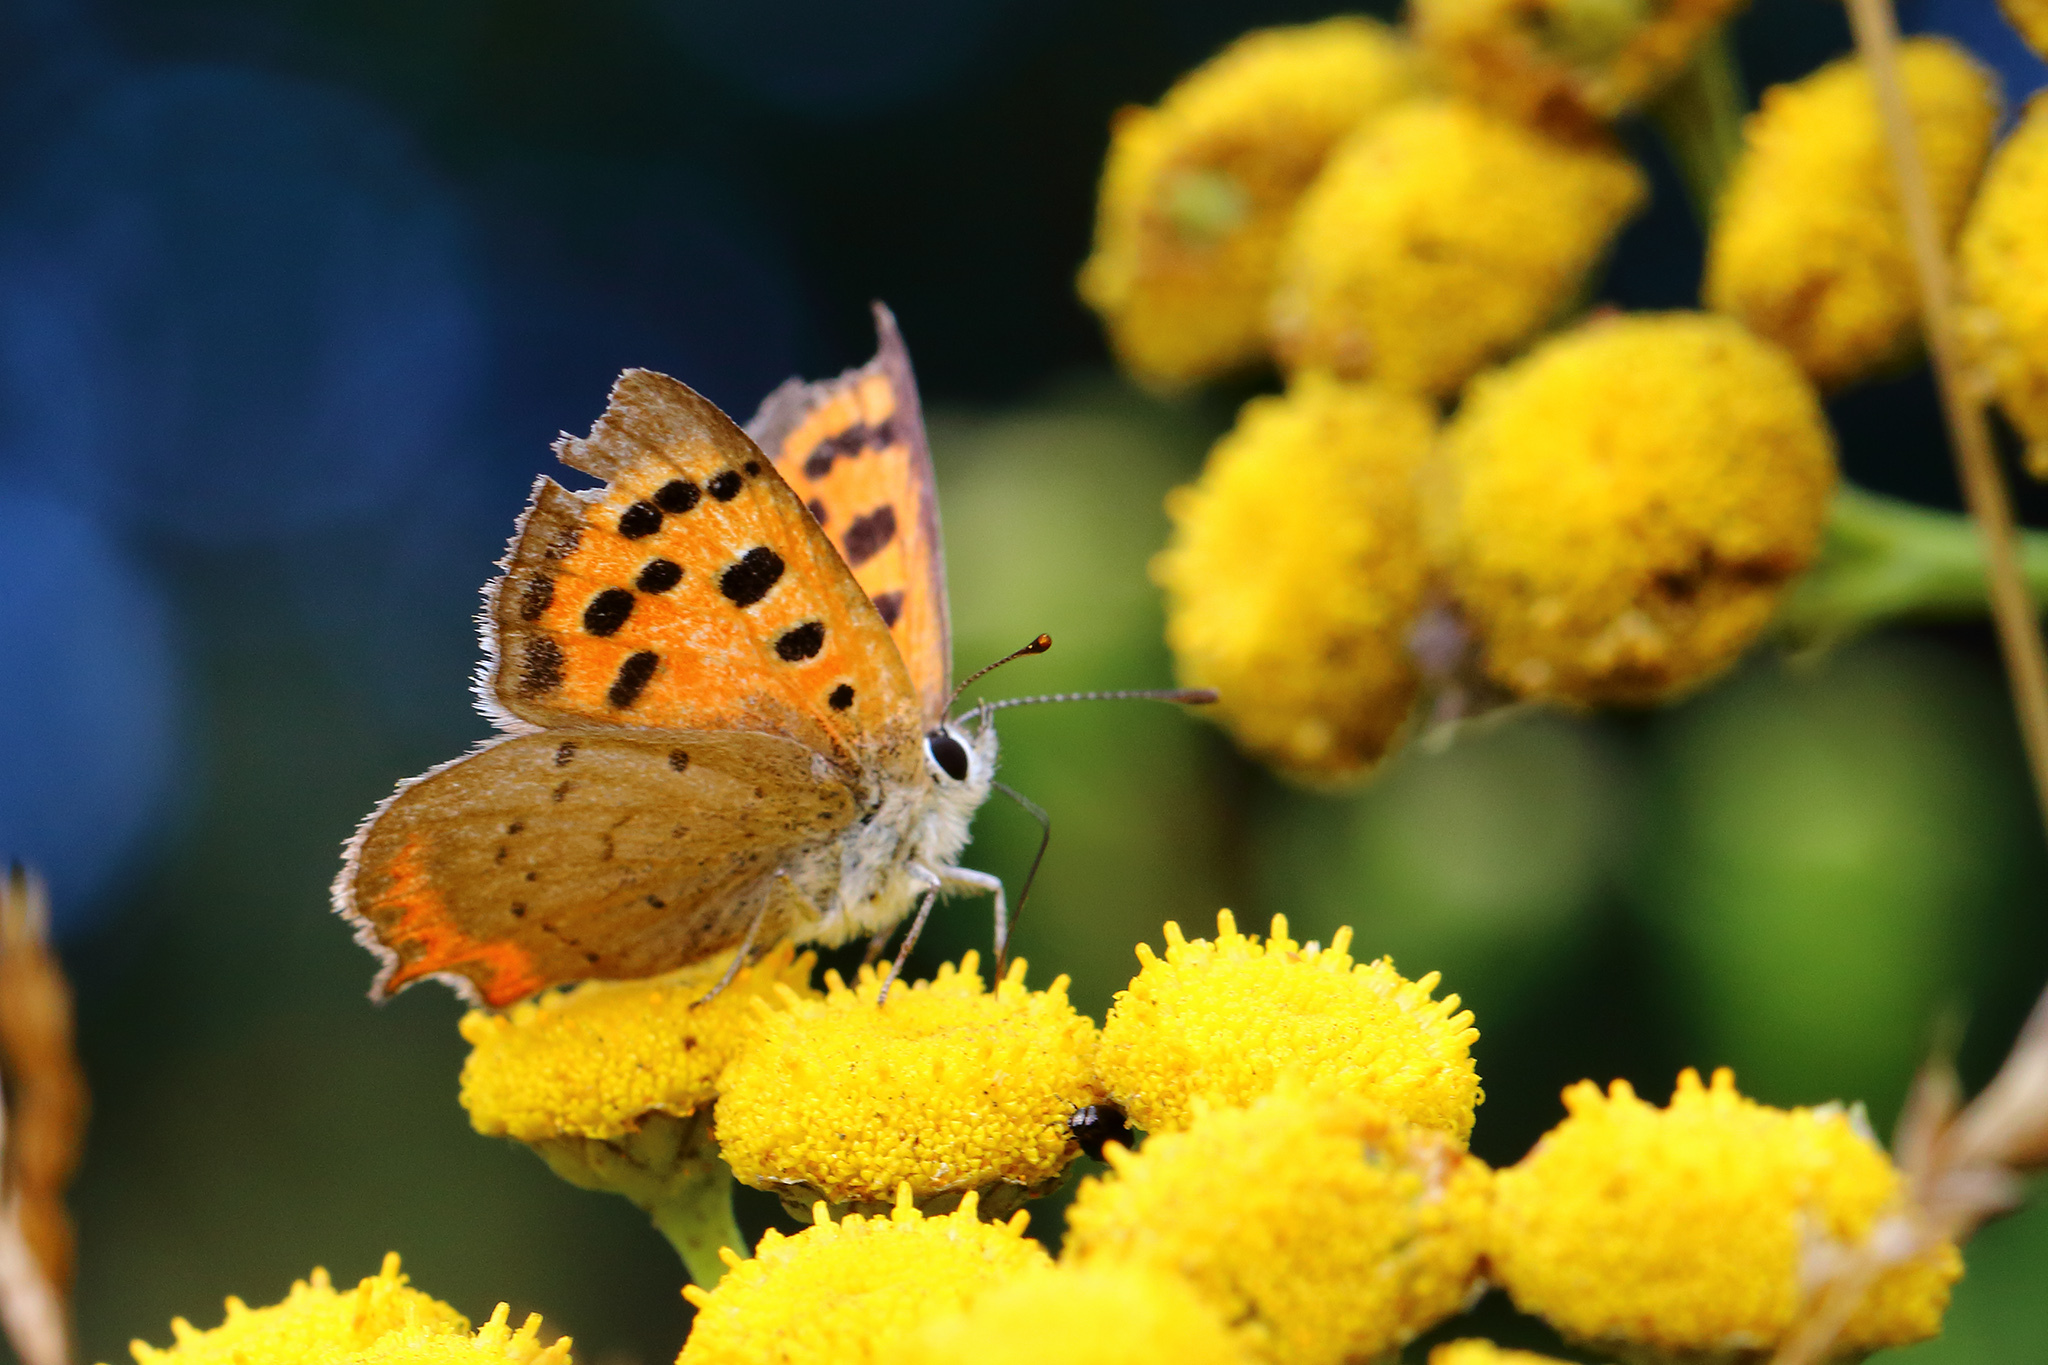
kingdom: Animalia
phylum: Arthropoda
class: Insecta
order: Lepidoptera
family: Lycaenidae
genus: Lycaena
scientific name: Lycaena phlaeas
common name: Small copper
